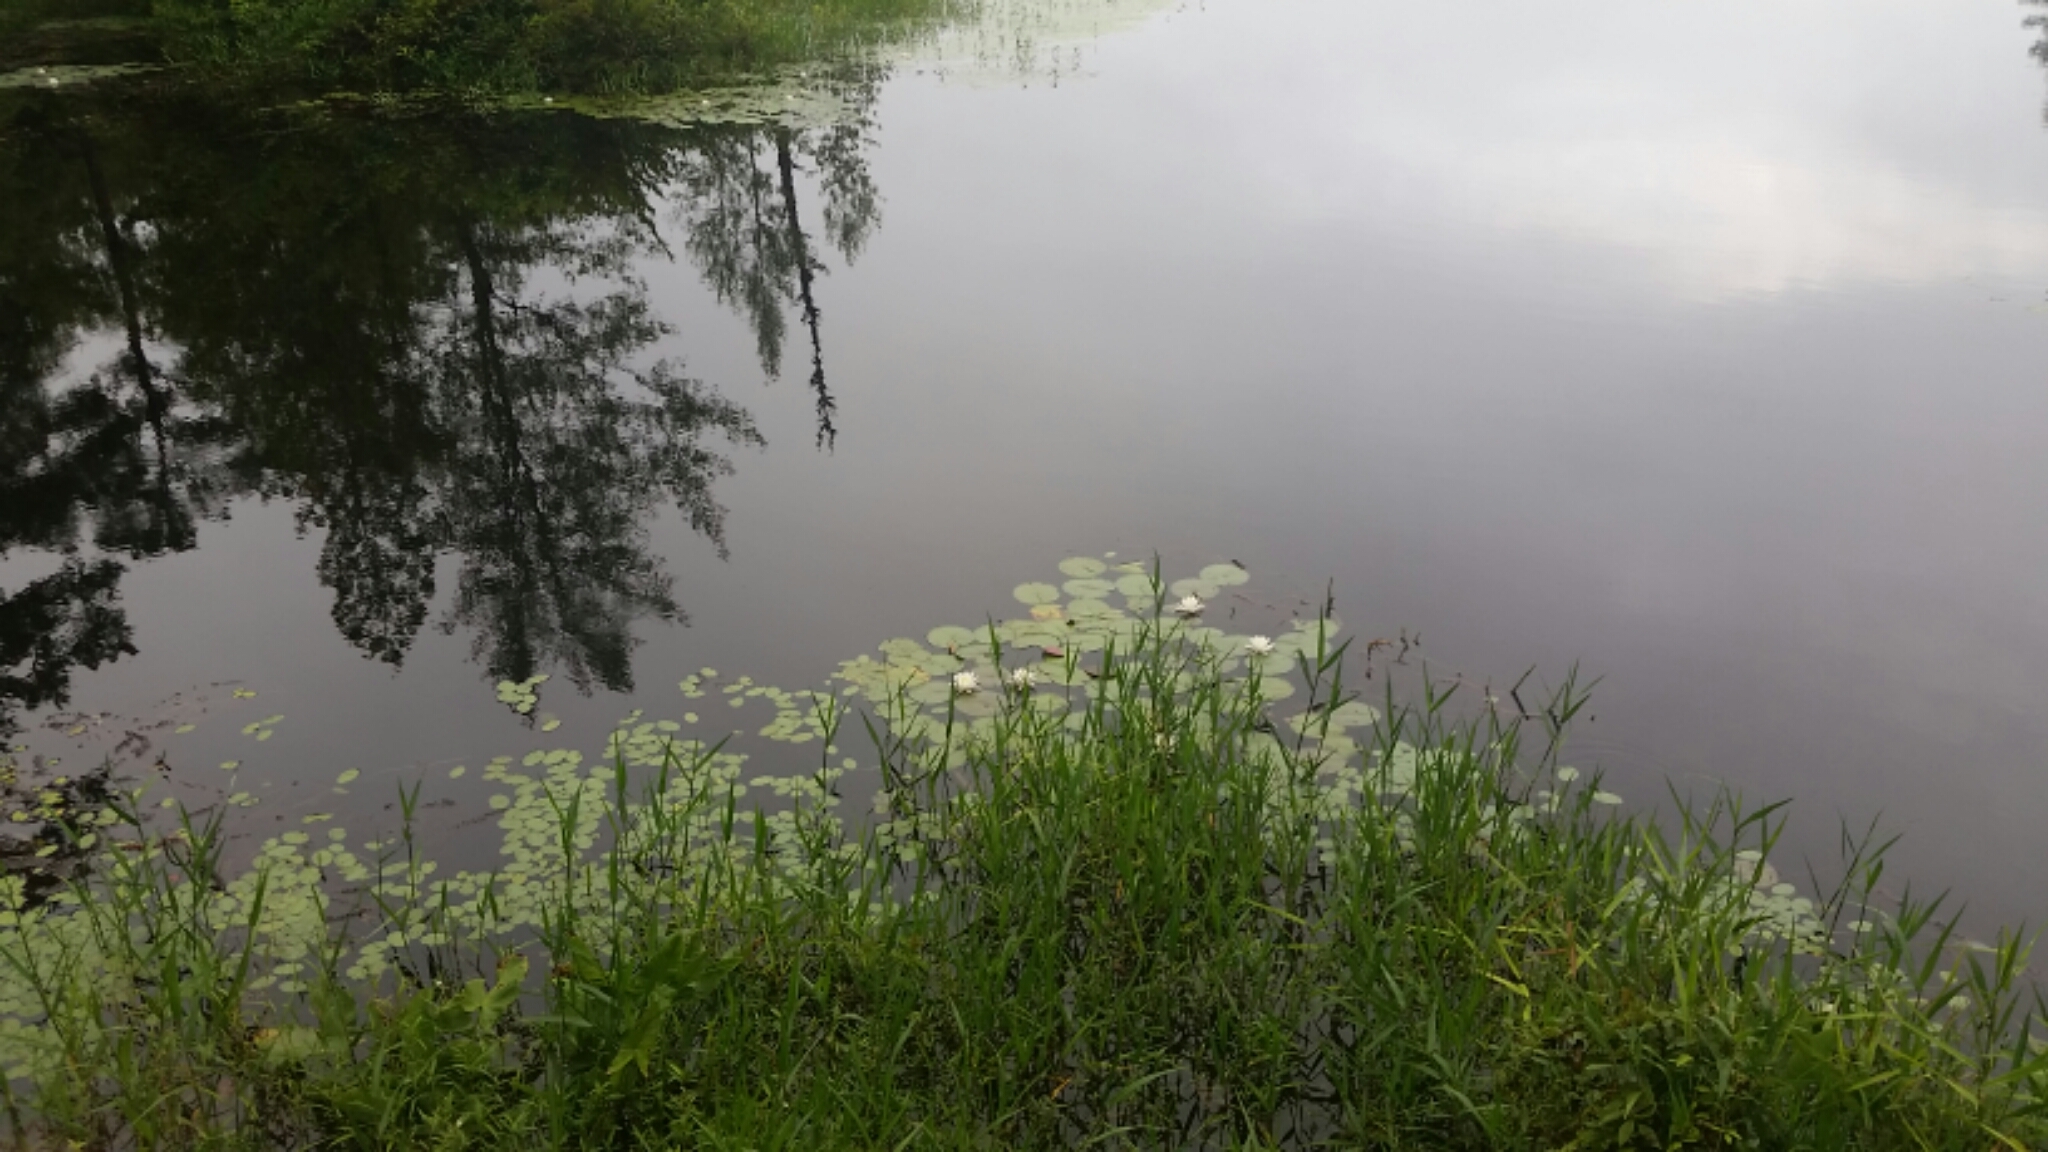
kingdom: Plantae
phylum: Tracheophyta
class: Magnoliopsida
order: Nymphaeales
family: Nymphaeaceae
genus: Nymphaea
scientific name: Nymphaea odorata
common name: Fragrant water-lily
